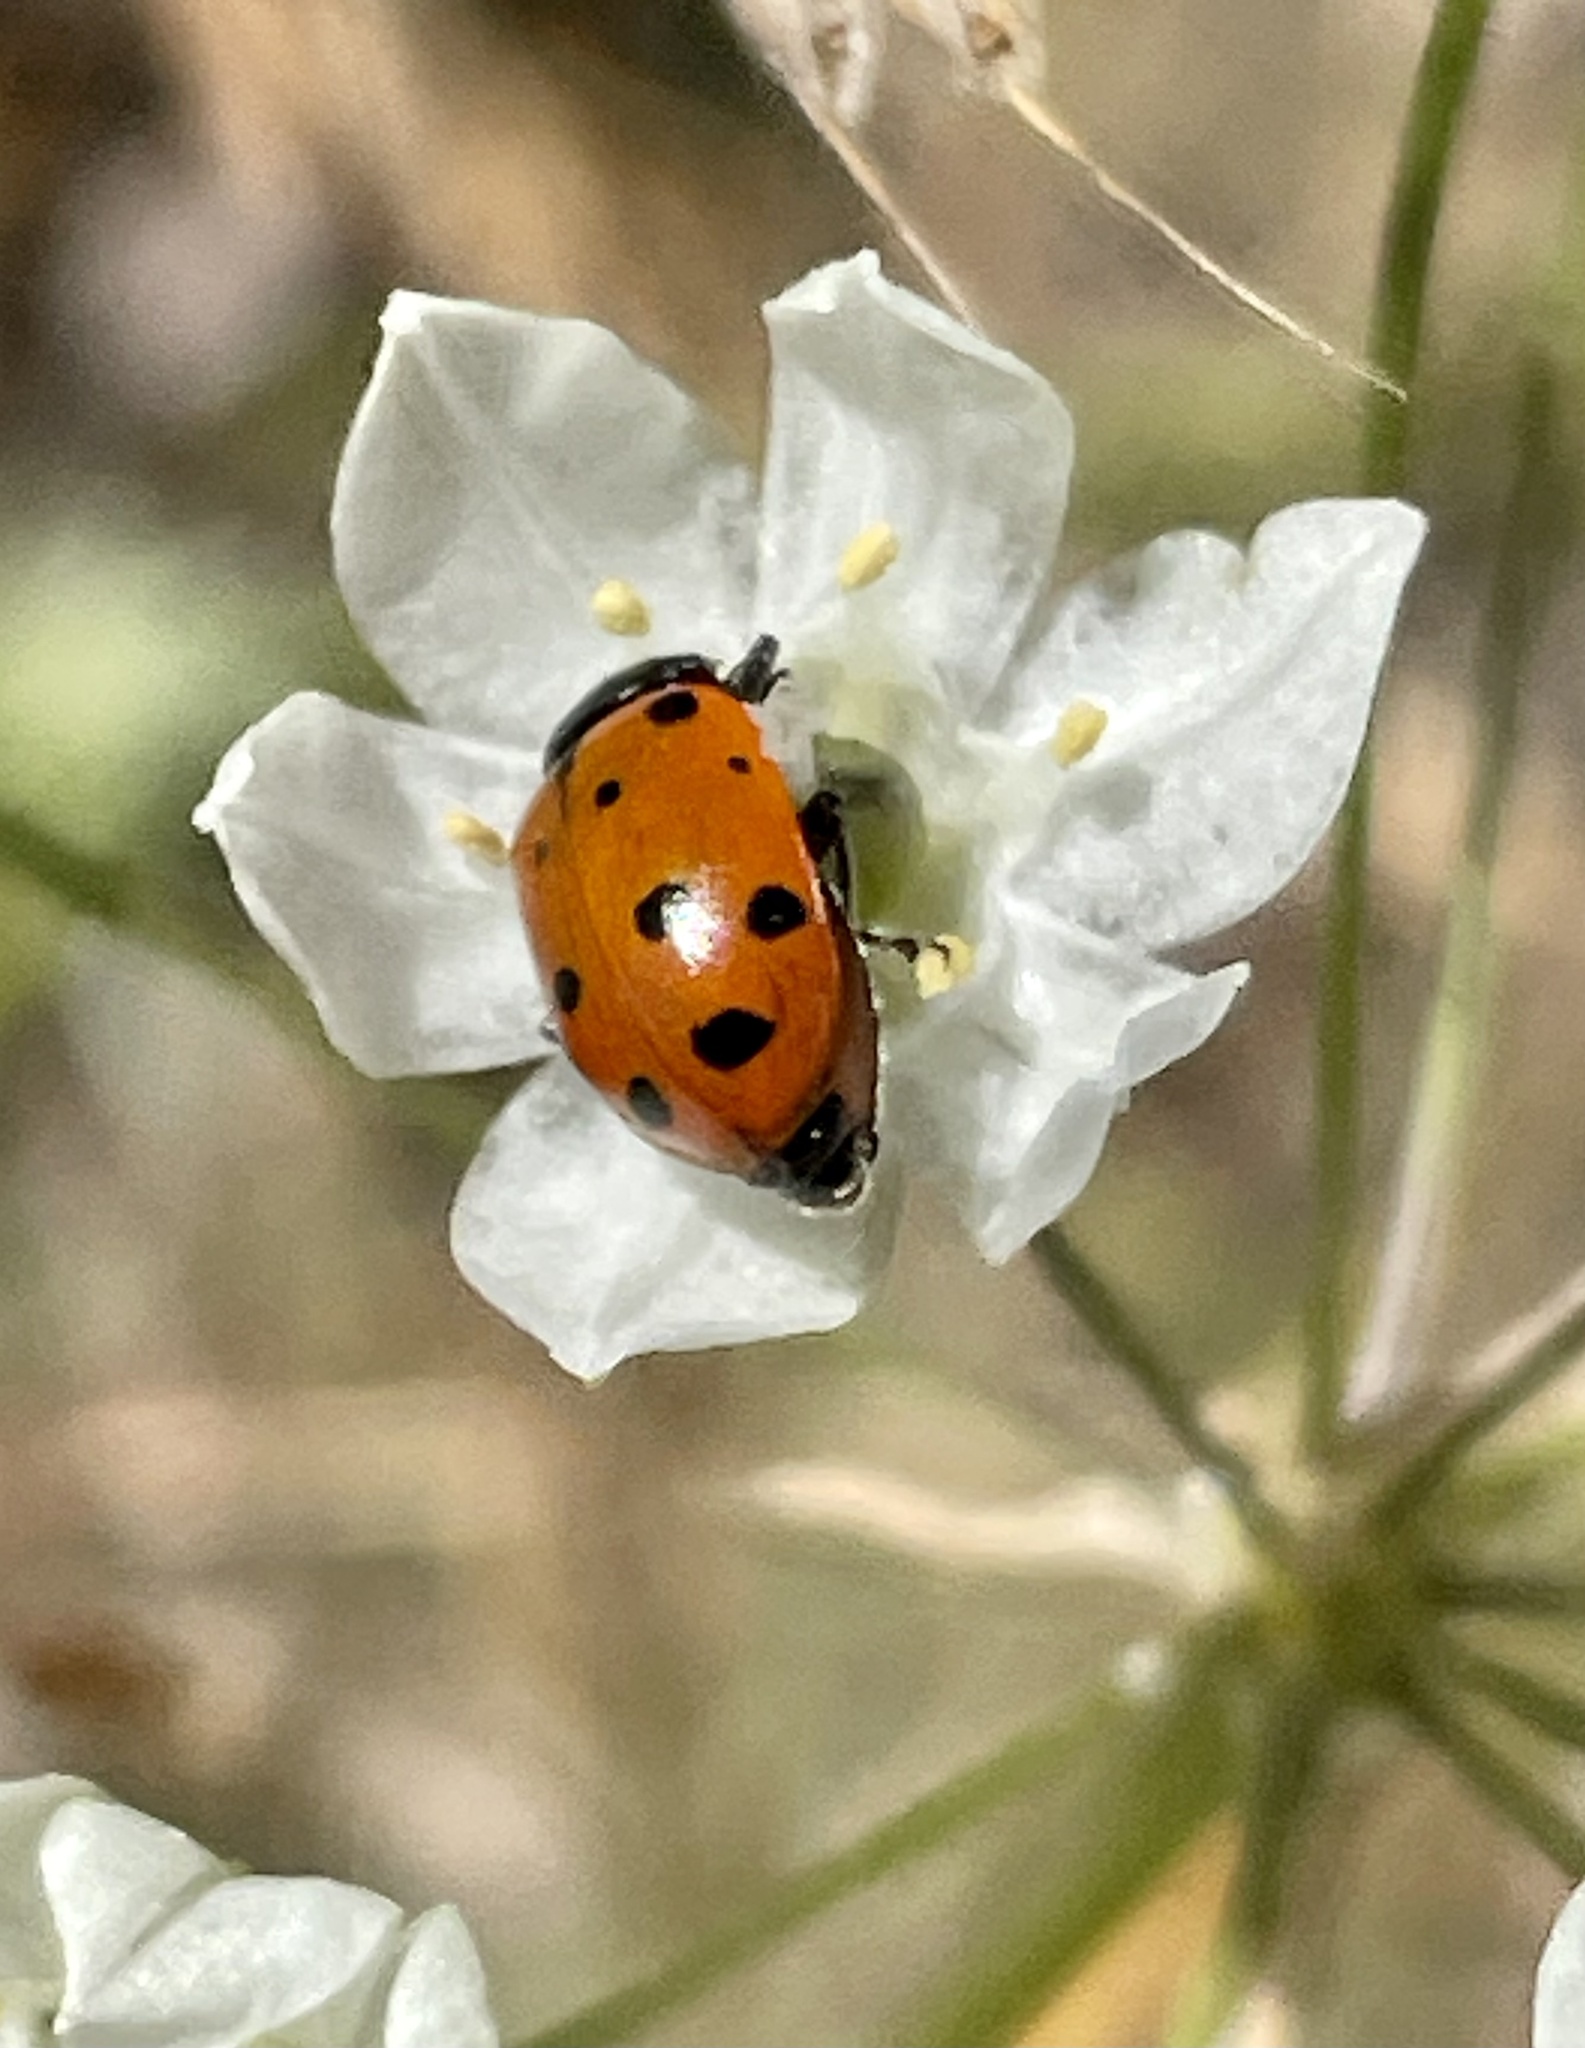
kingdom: Animalia
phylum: Arthropoda
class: Insecta
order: Coleoptera
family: Coccinellidae
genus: Hippodamia
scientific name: Hippodamia convergens
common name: Convergent lady beetle
